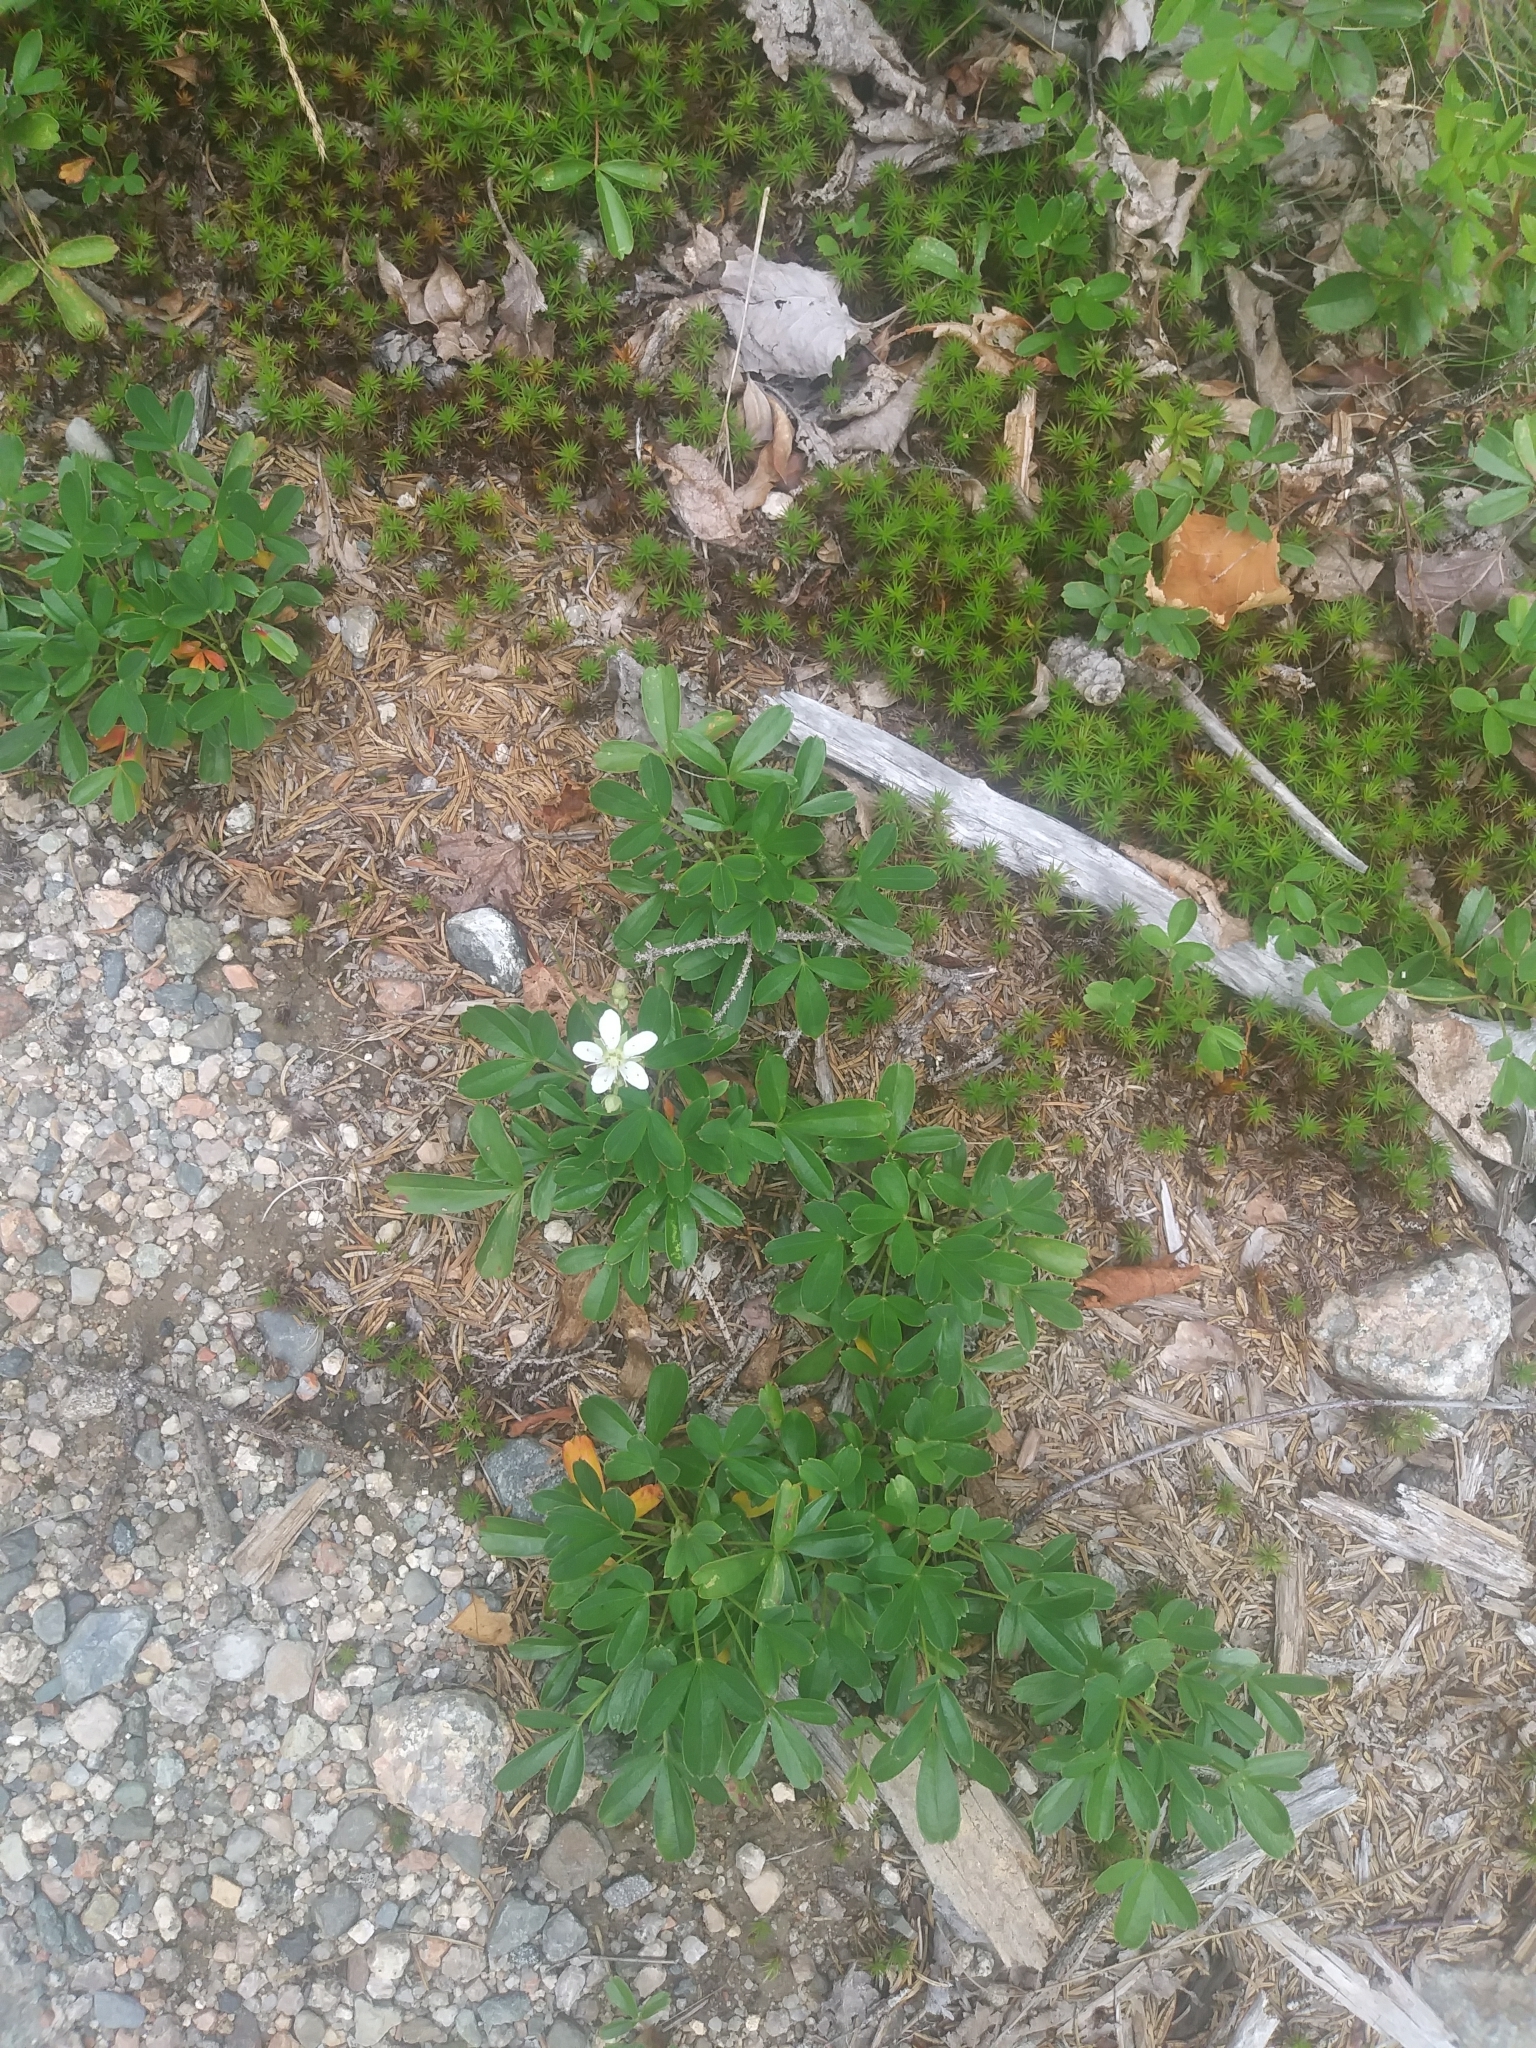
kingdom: Plantae
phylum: Tracheophyta
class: Magnoliopsida
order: Rosales
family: Rosaceae
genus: Sibbaldia
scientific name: Sibbaldia tridentata
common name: Three-toothed cinquefoil
